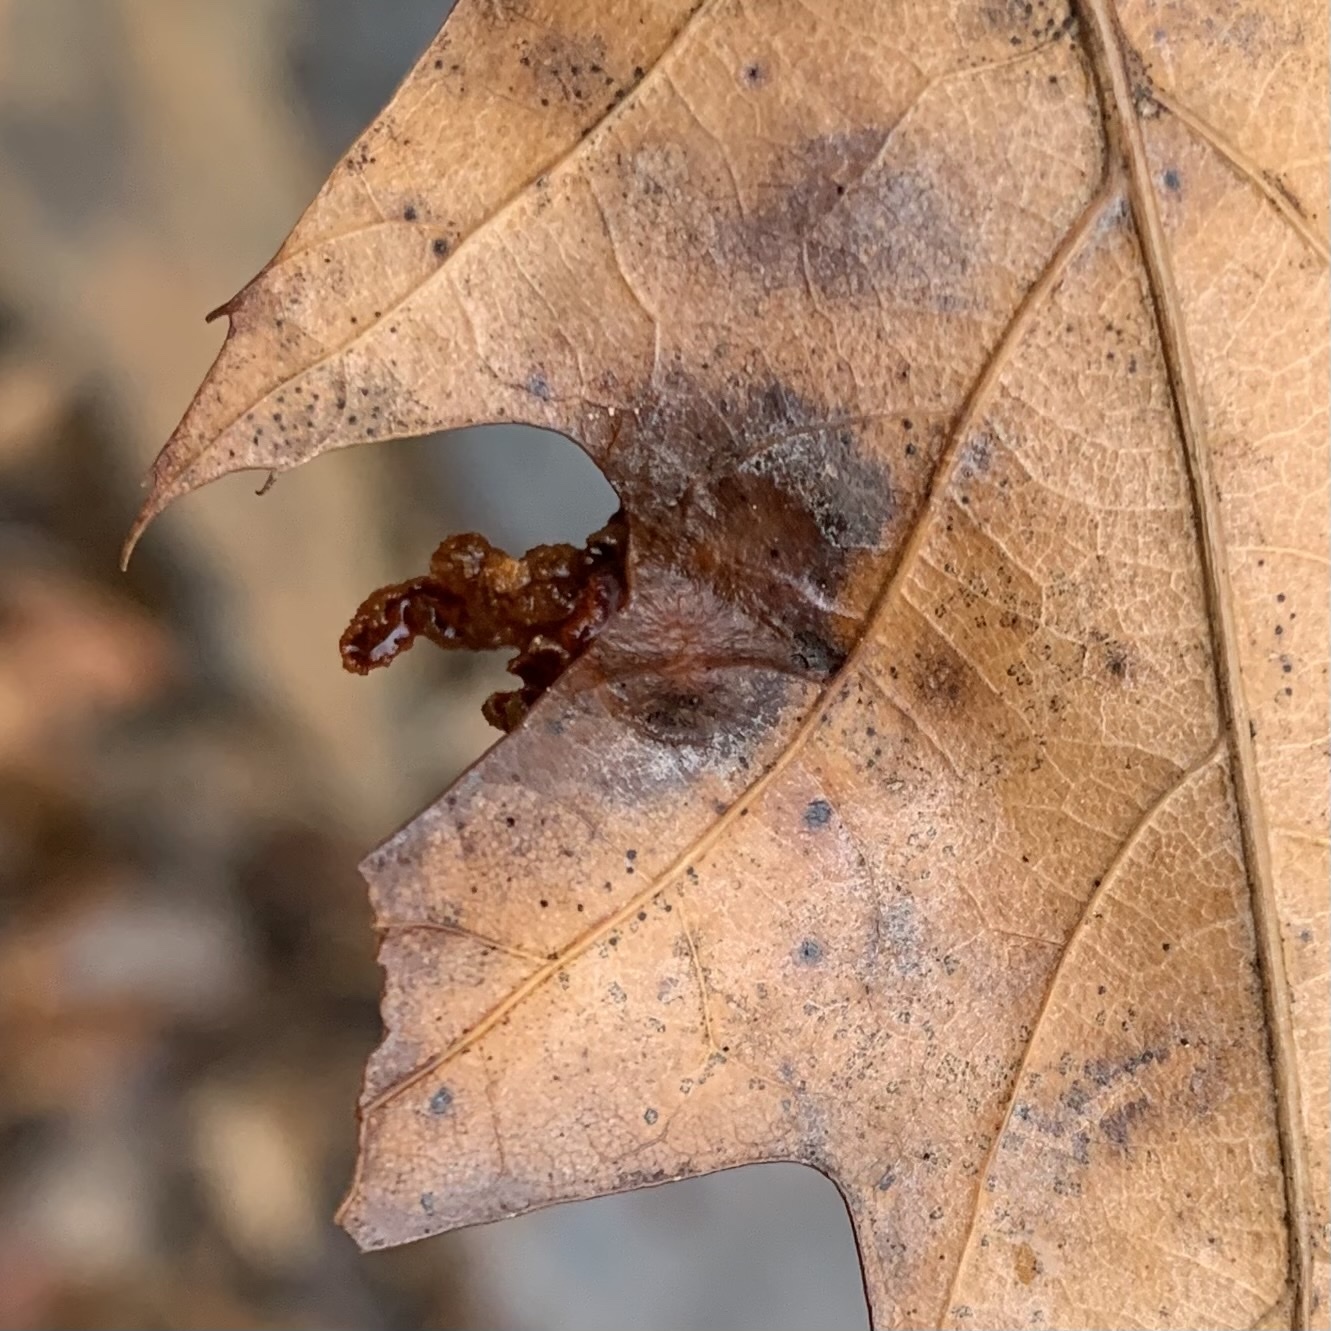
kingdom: Animalia
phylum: Arthropoda
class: Insecta
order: Diptera
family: Cecidomyiidae
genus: Polystepha
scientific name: Polystepha pilulae
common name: Oak leaf gall midge
